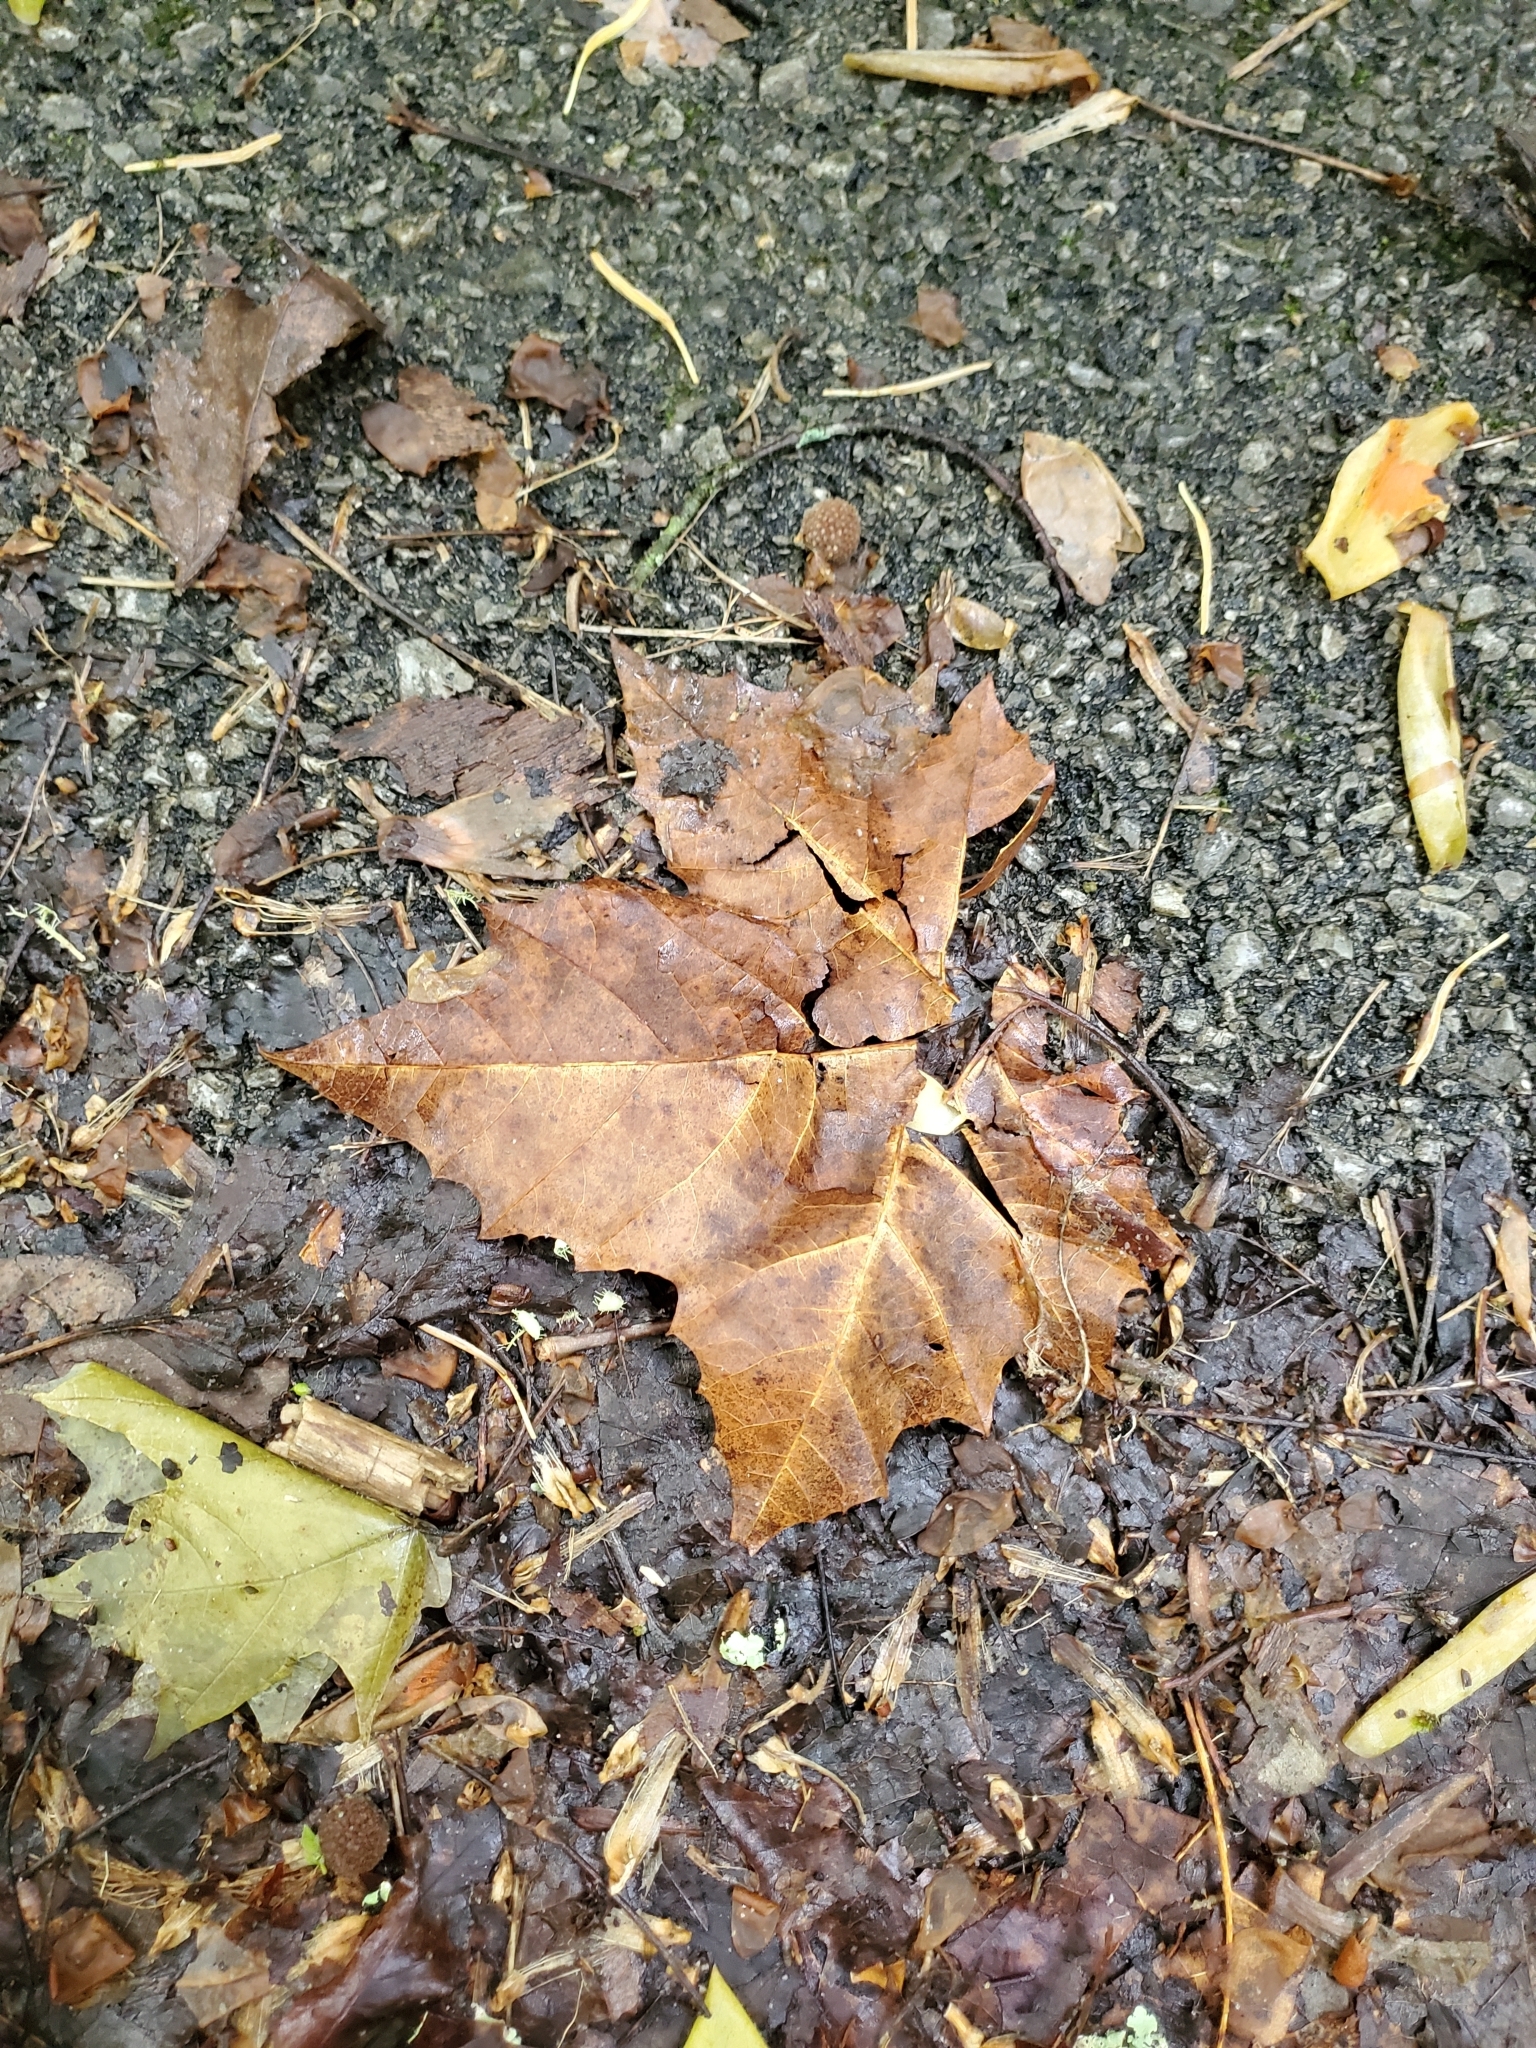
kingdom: Plantae
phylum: Tracheophyta
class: Magnoliopsida
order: Proteales
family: Platanaceae
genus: Platanus
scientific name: Platanus occidentalis
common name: American sycamore
